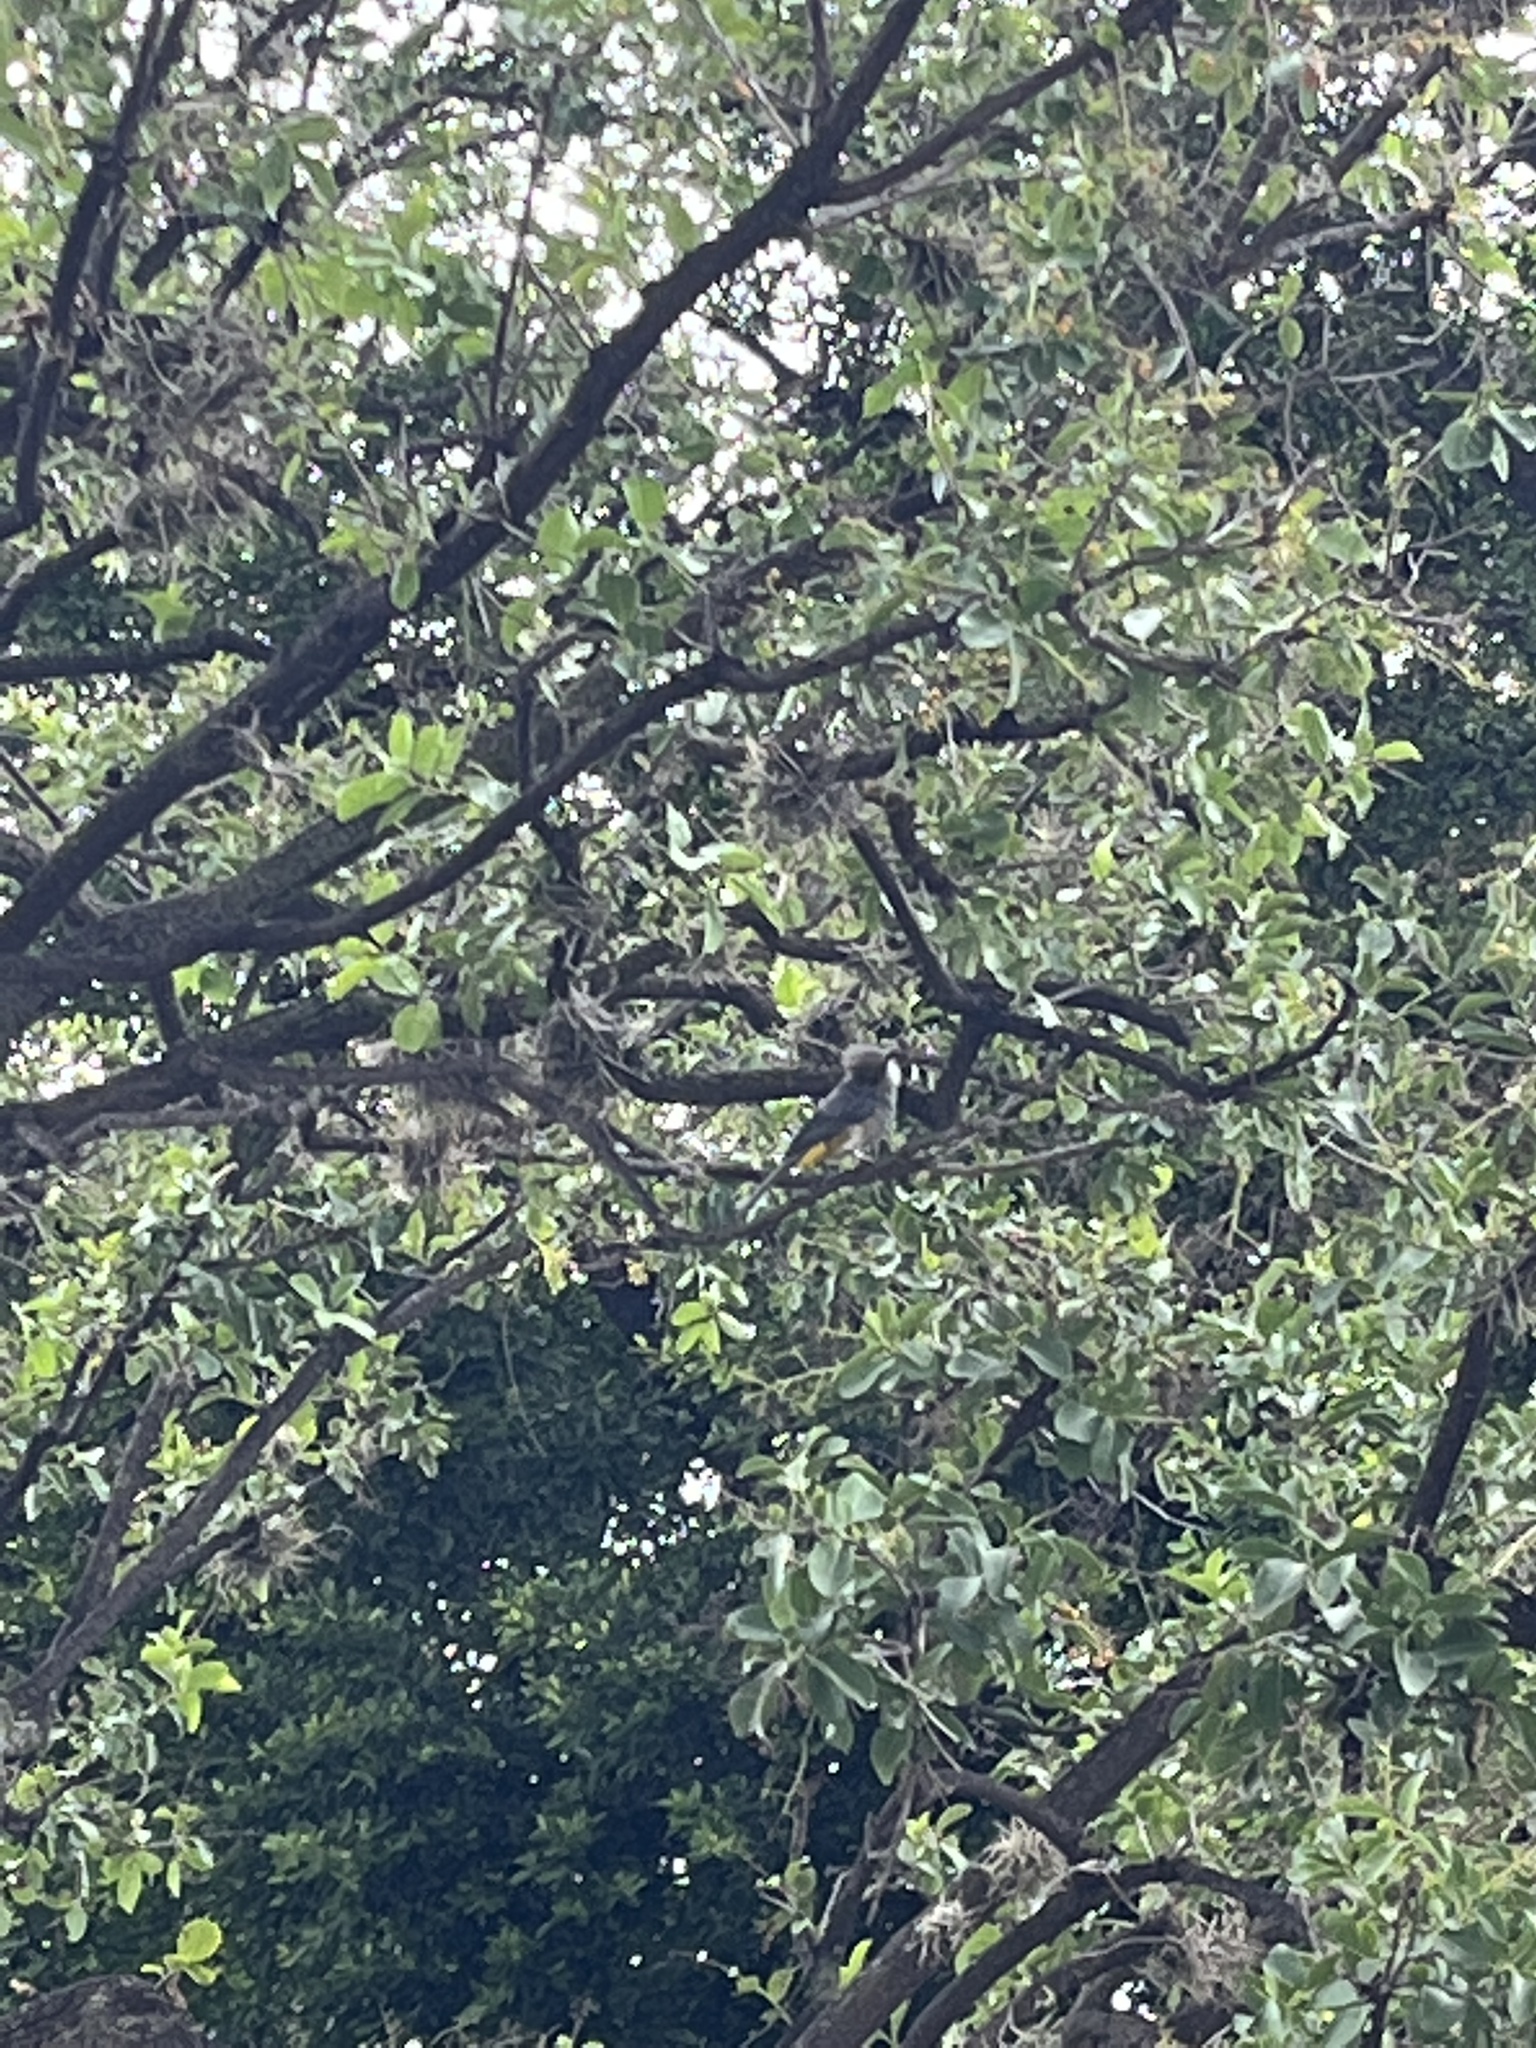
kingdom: Animalia
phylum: Chordata
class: Aves
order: Passeriformes
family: Ptilogonatidae
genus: Ptilogonys
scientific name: Ptilogonys cinereus
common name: Gray silky-flycatcher
